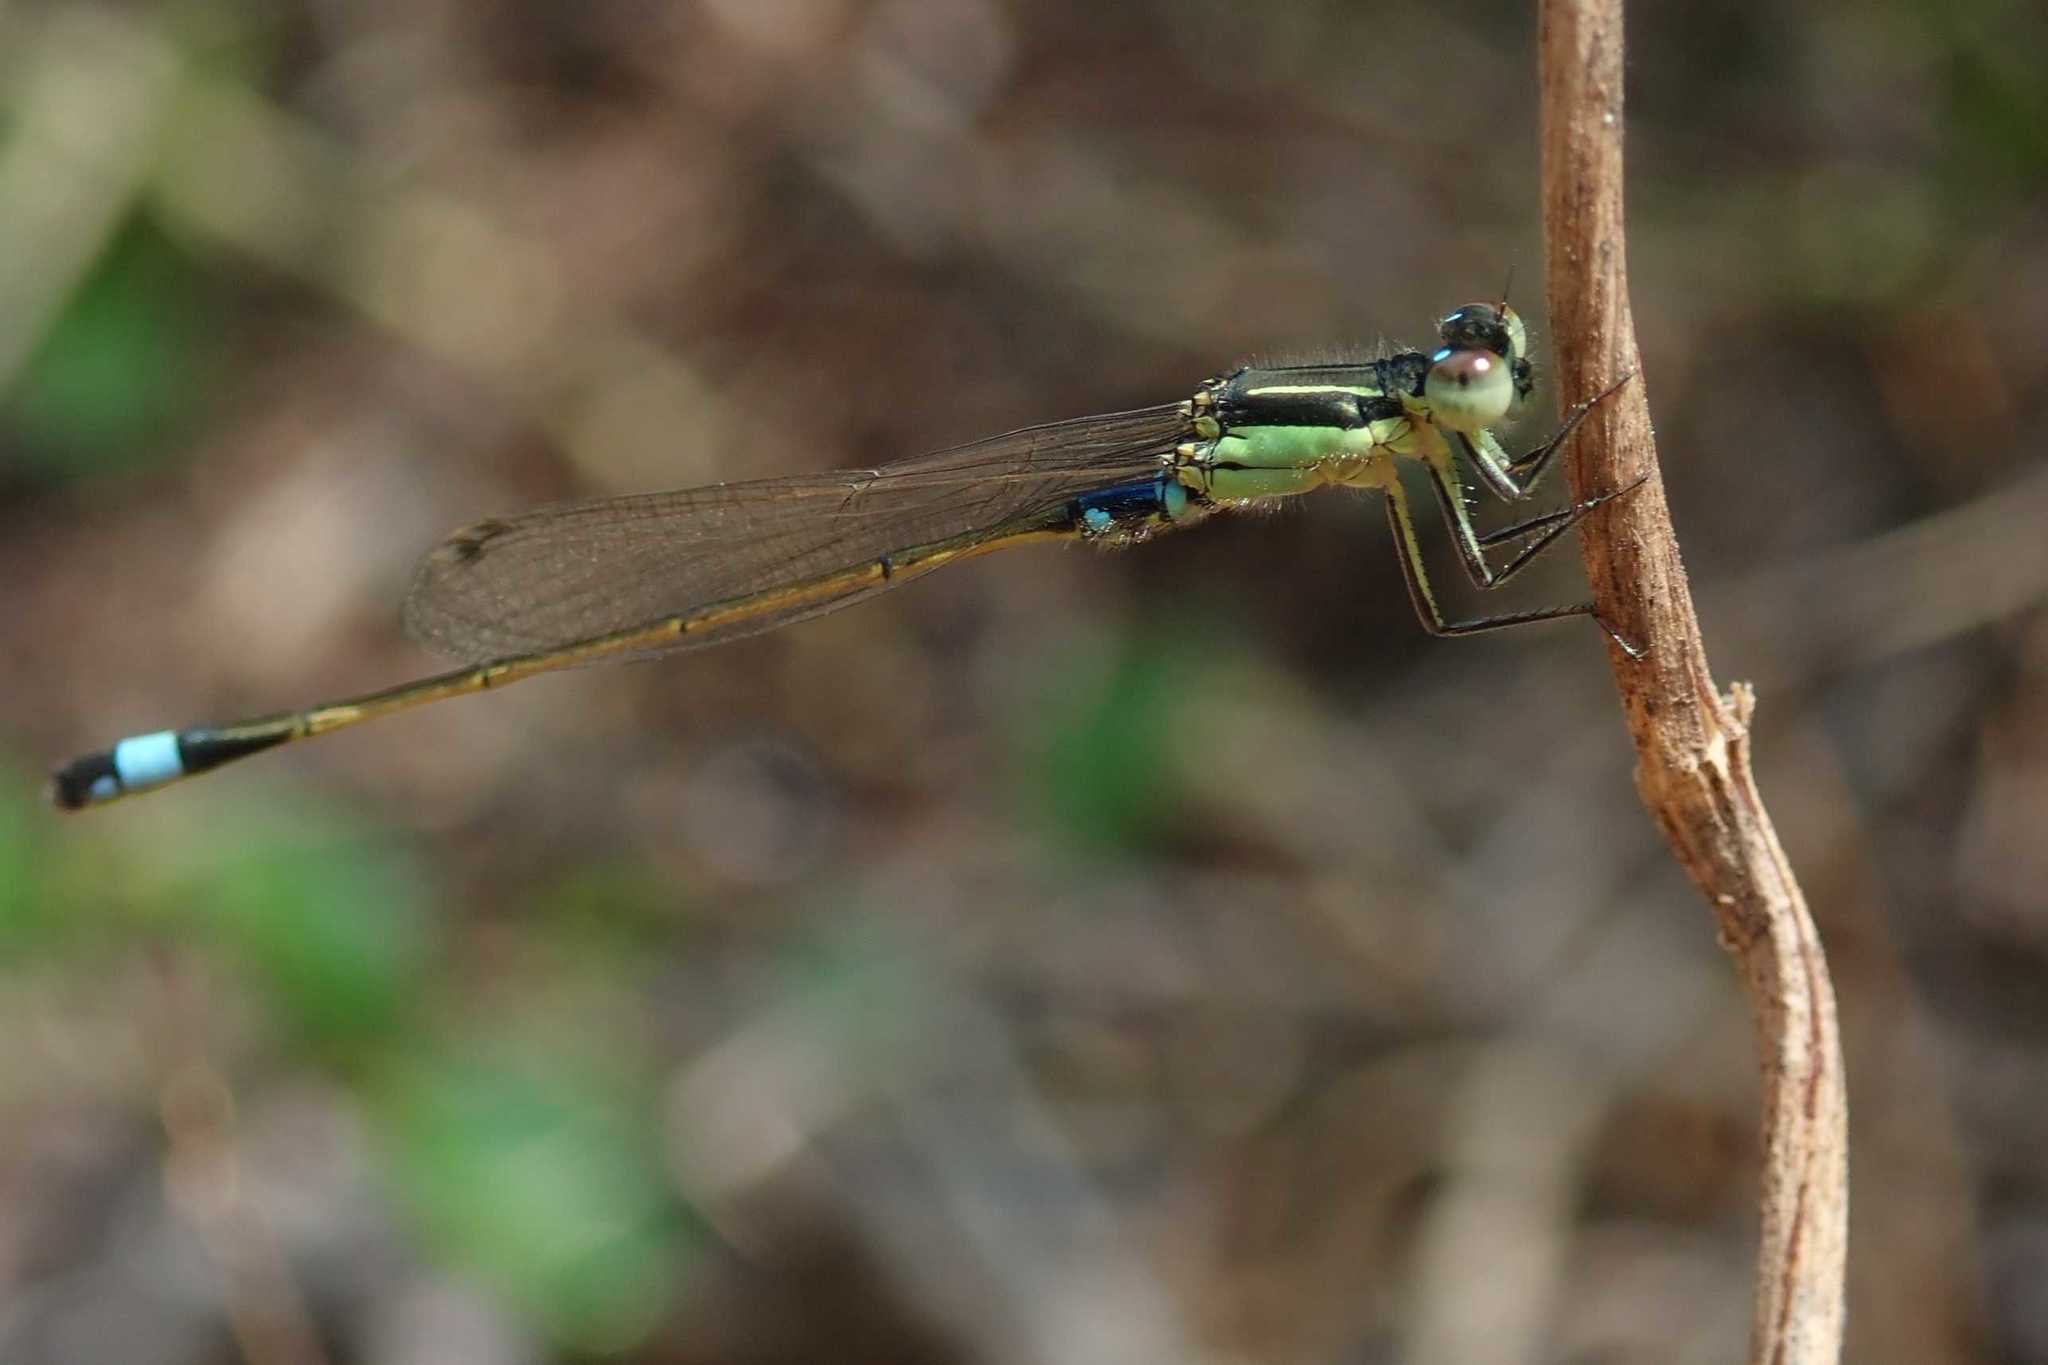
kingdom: Animalia
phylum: Arthropoda
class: Insecta
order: Odonata
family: Coenagrionidae
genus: Ischnura
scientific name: Ischnura senegalensis
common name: Tropical bluetail
